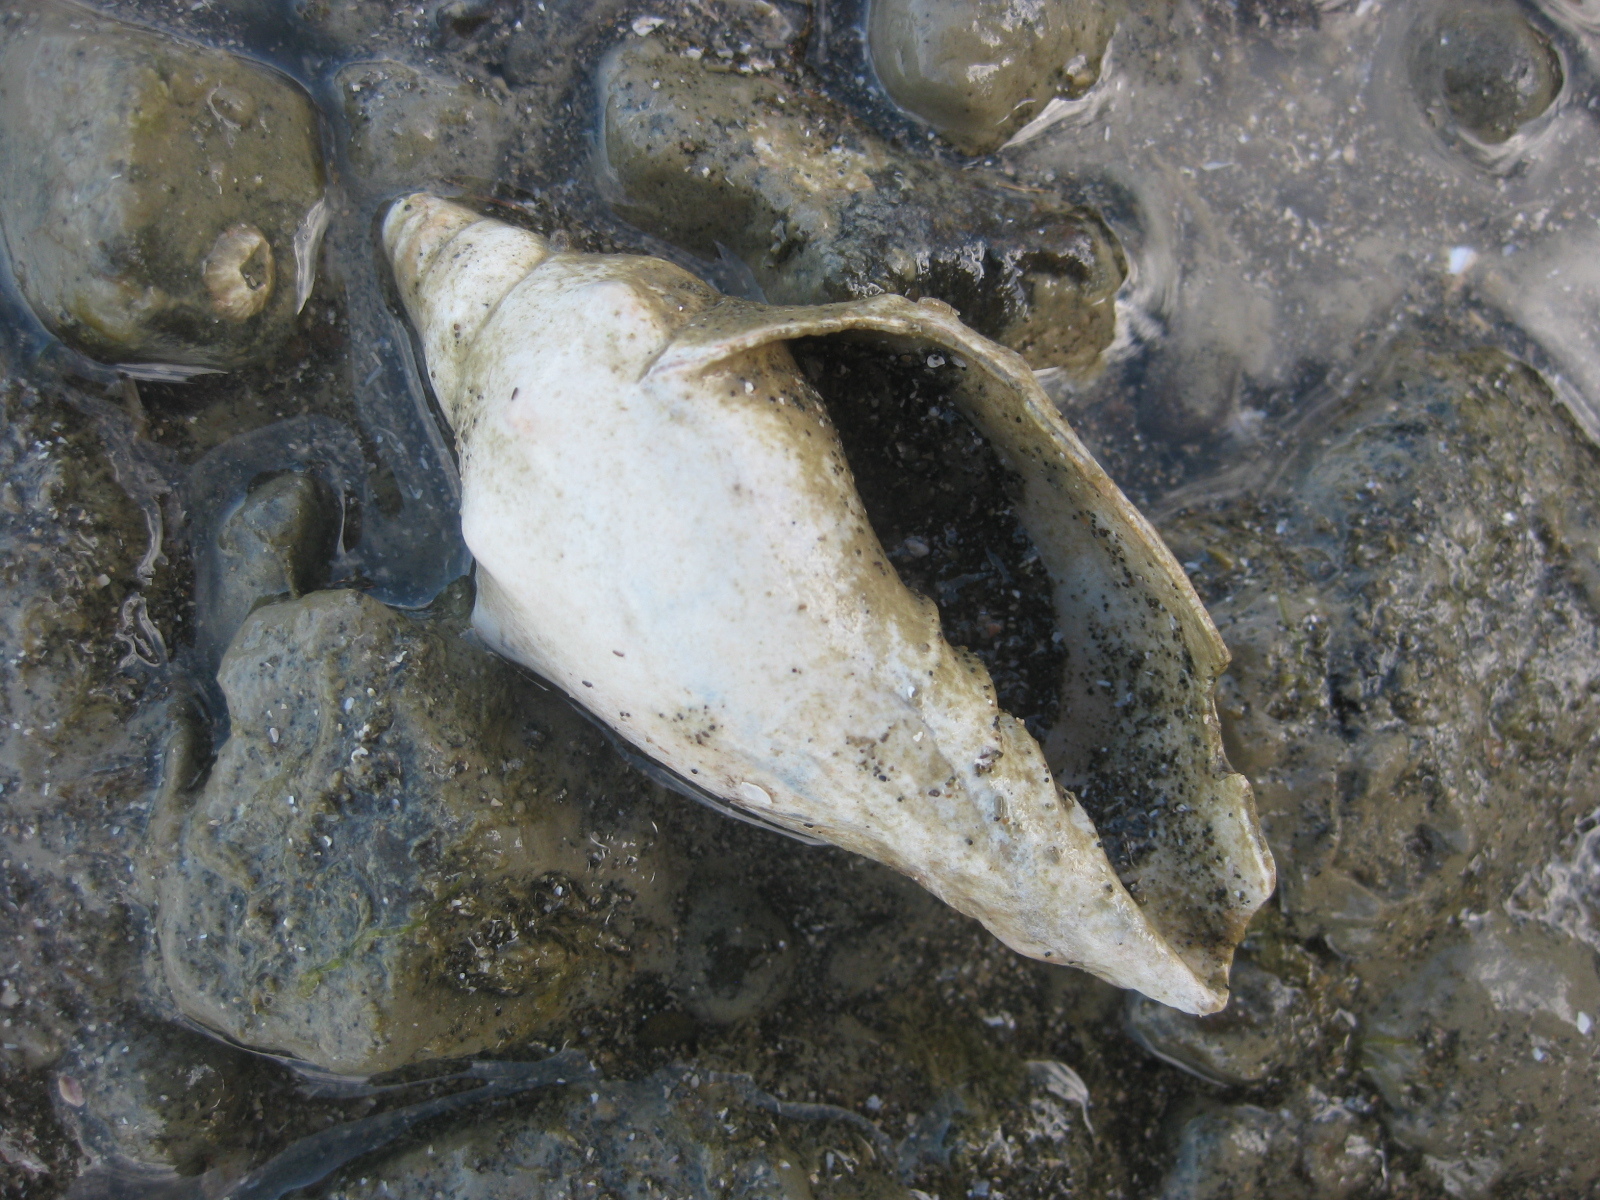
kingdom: Animalia
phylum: Mollusca
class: Gastropoda
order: Neogastropoda
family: Volutidae
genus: Alcithoe
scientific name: Alcithoe arabica
